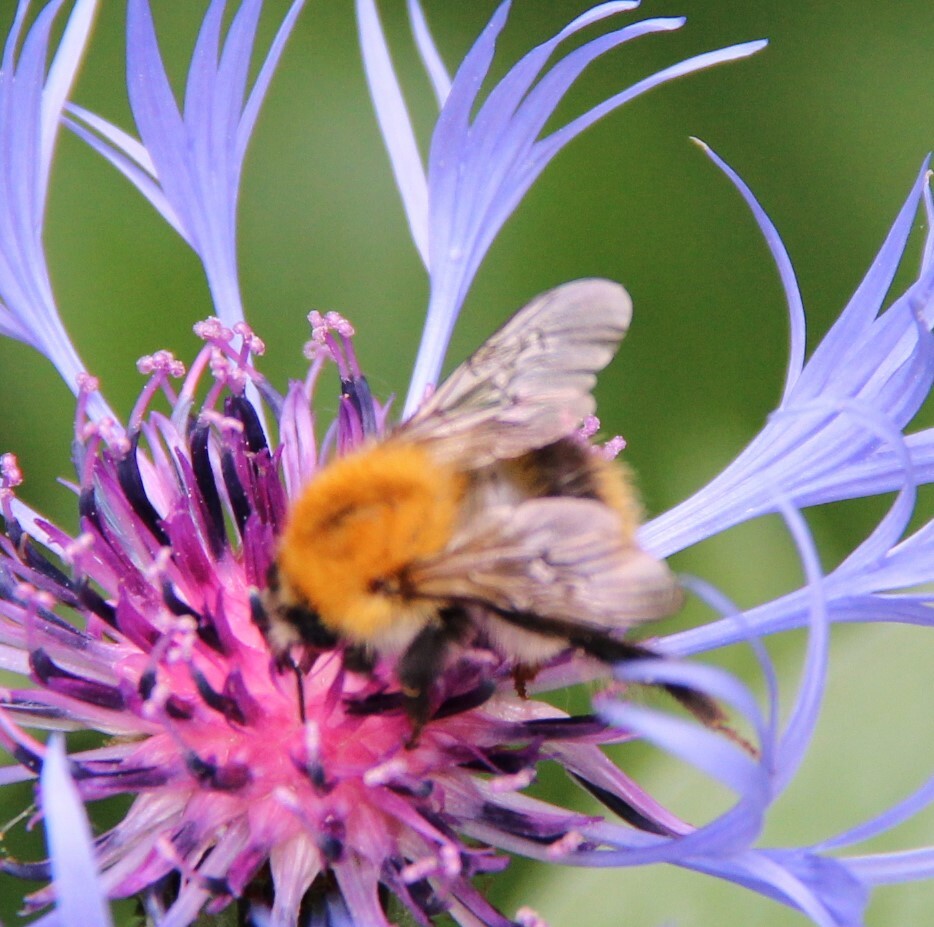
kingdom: Animalia
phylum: Arthropoda
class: Insecta
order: Hymenoptera
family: Apidae
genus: Bombus
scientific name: Bombus pascuorum
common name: Common carder bee
